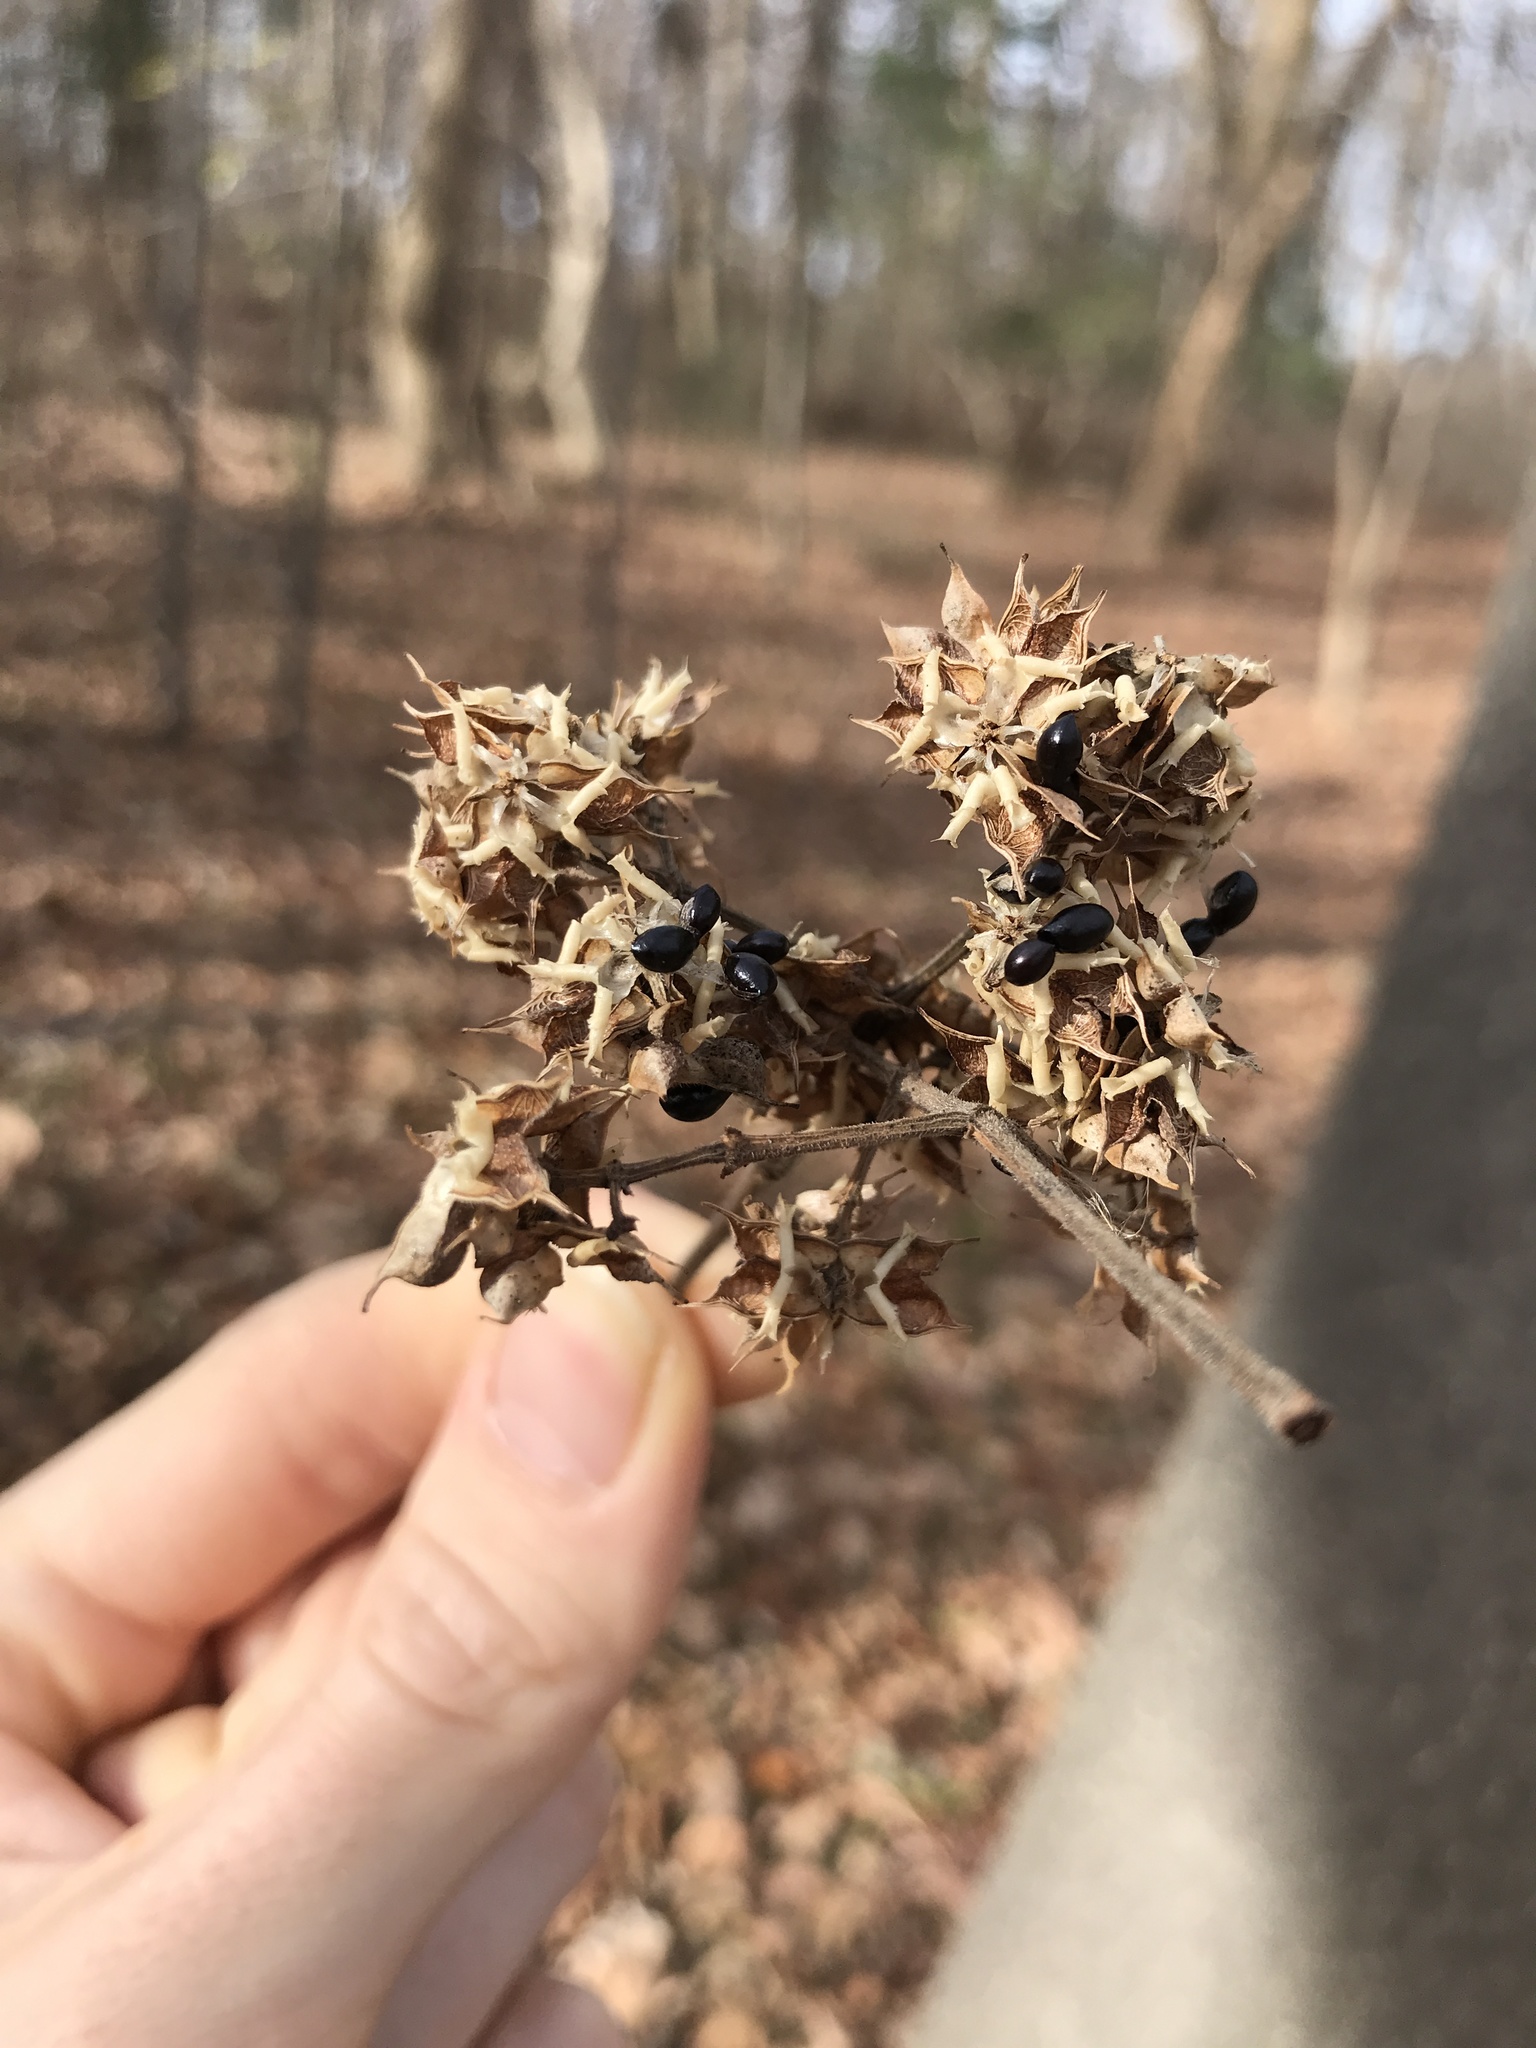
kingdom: Plantae
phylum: Tracheophyta
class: Magnoliopsida
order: Sapindales
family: Rutaceae
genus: Tetradium
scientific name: Tetradium daniellii
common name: Bee-bee tree
